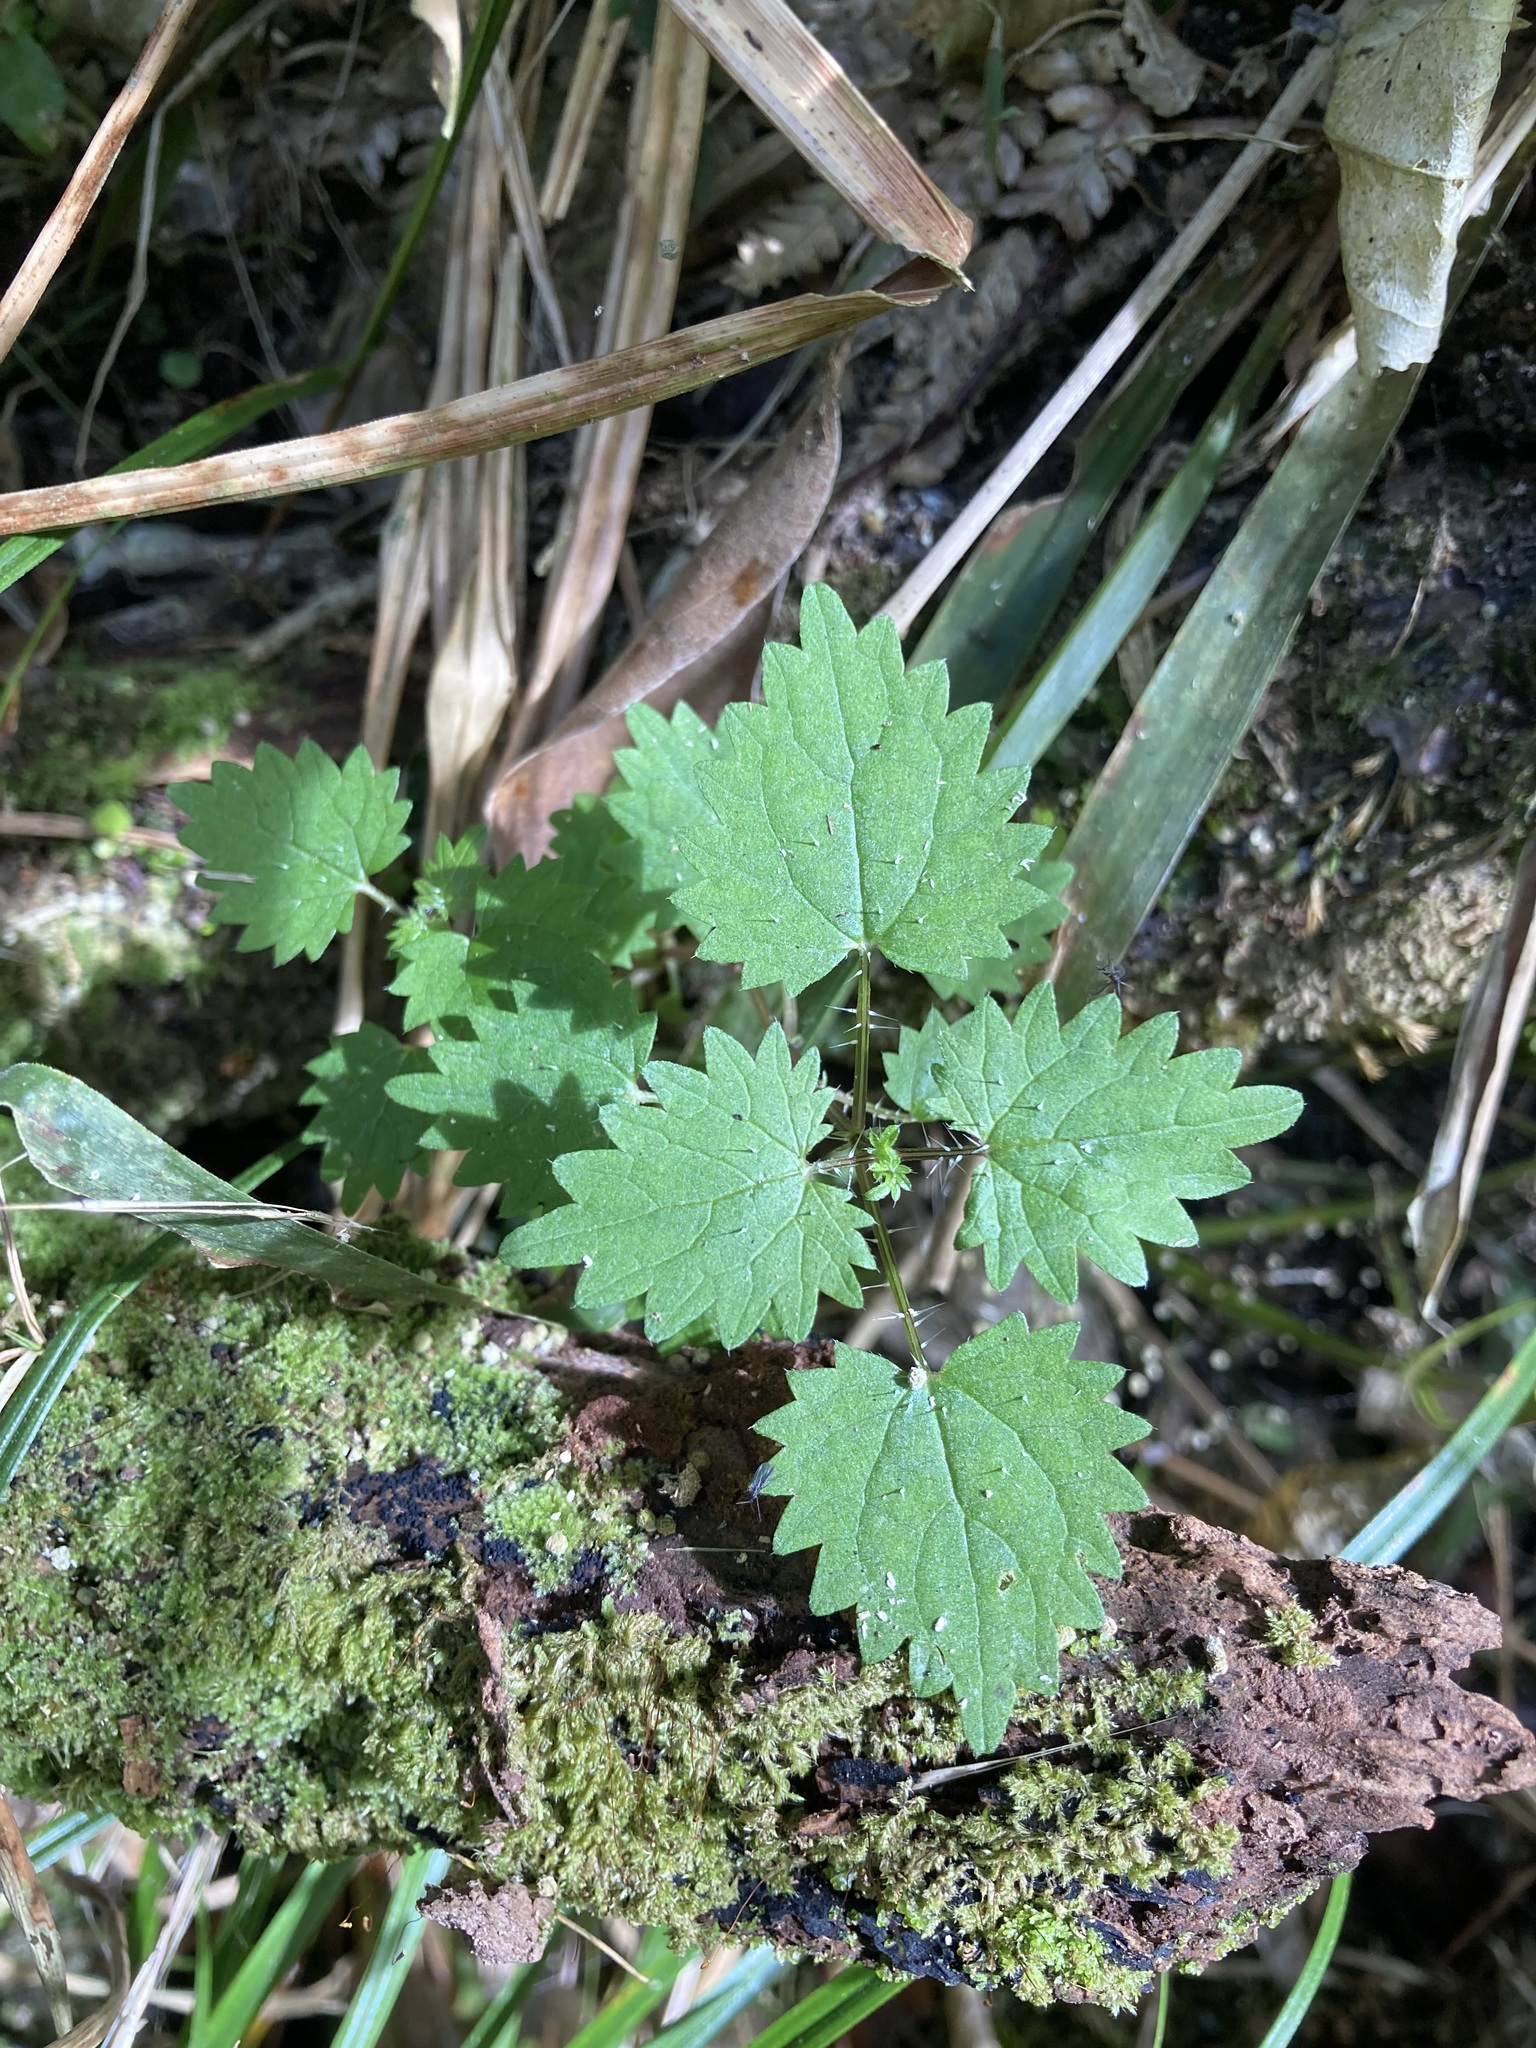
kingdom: Plantae
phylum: Tracheophyta
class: Magnoliopsida
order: Rosales
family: Urticaceae
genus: Urtica
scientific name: Urtica sykesii
